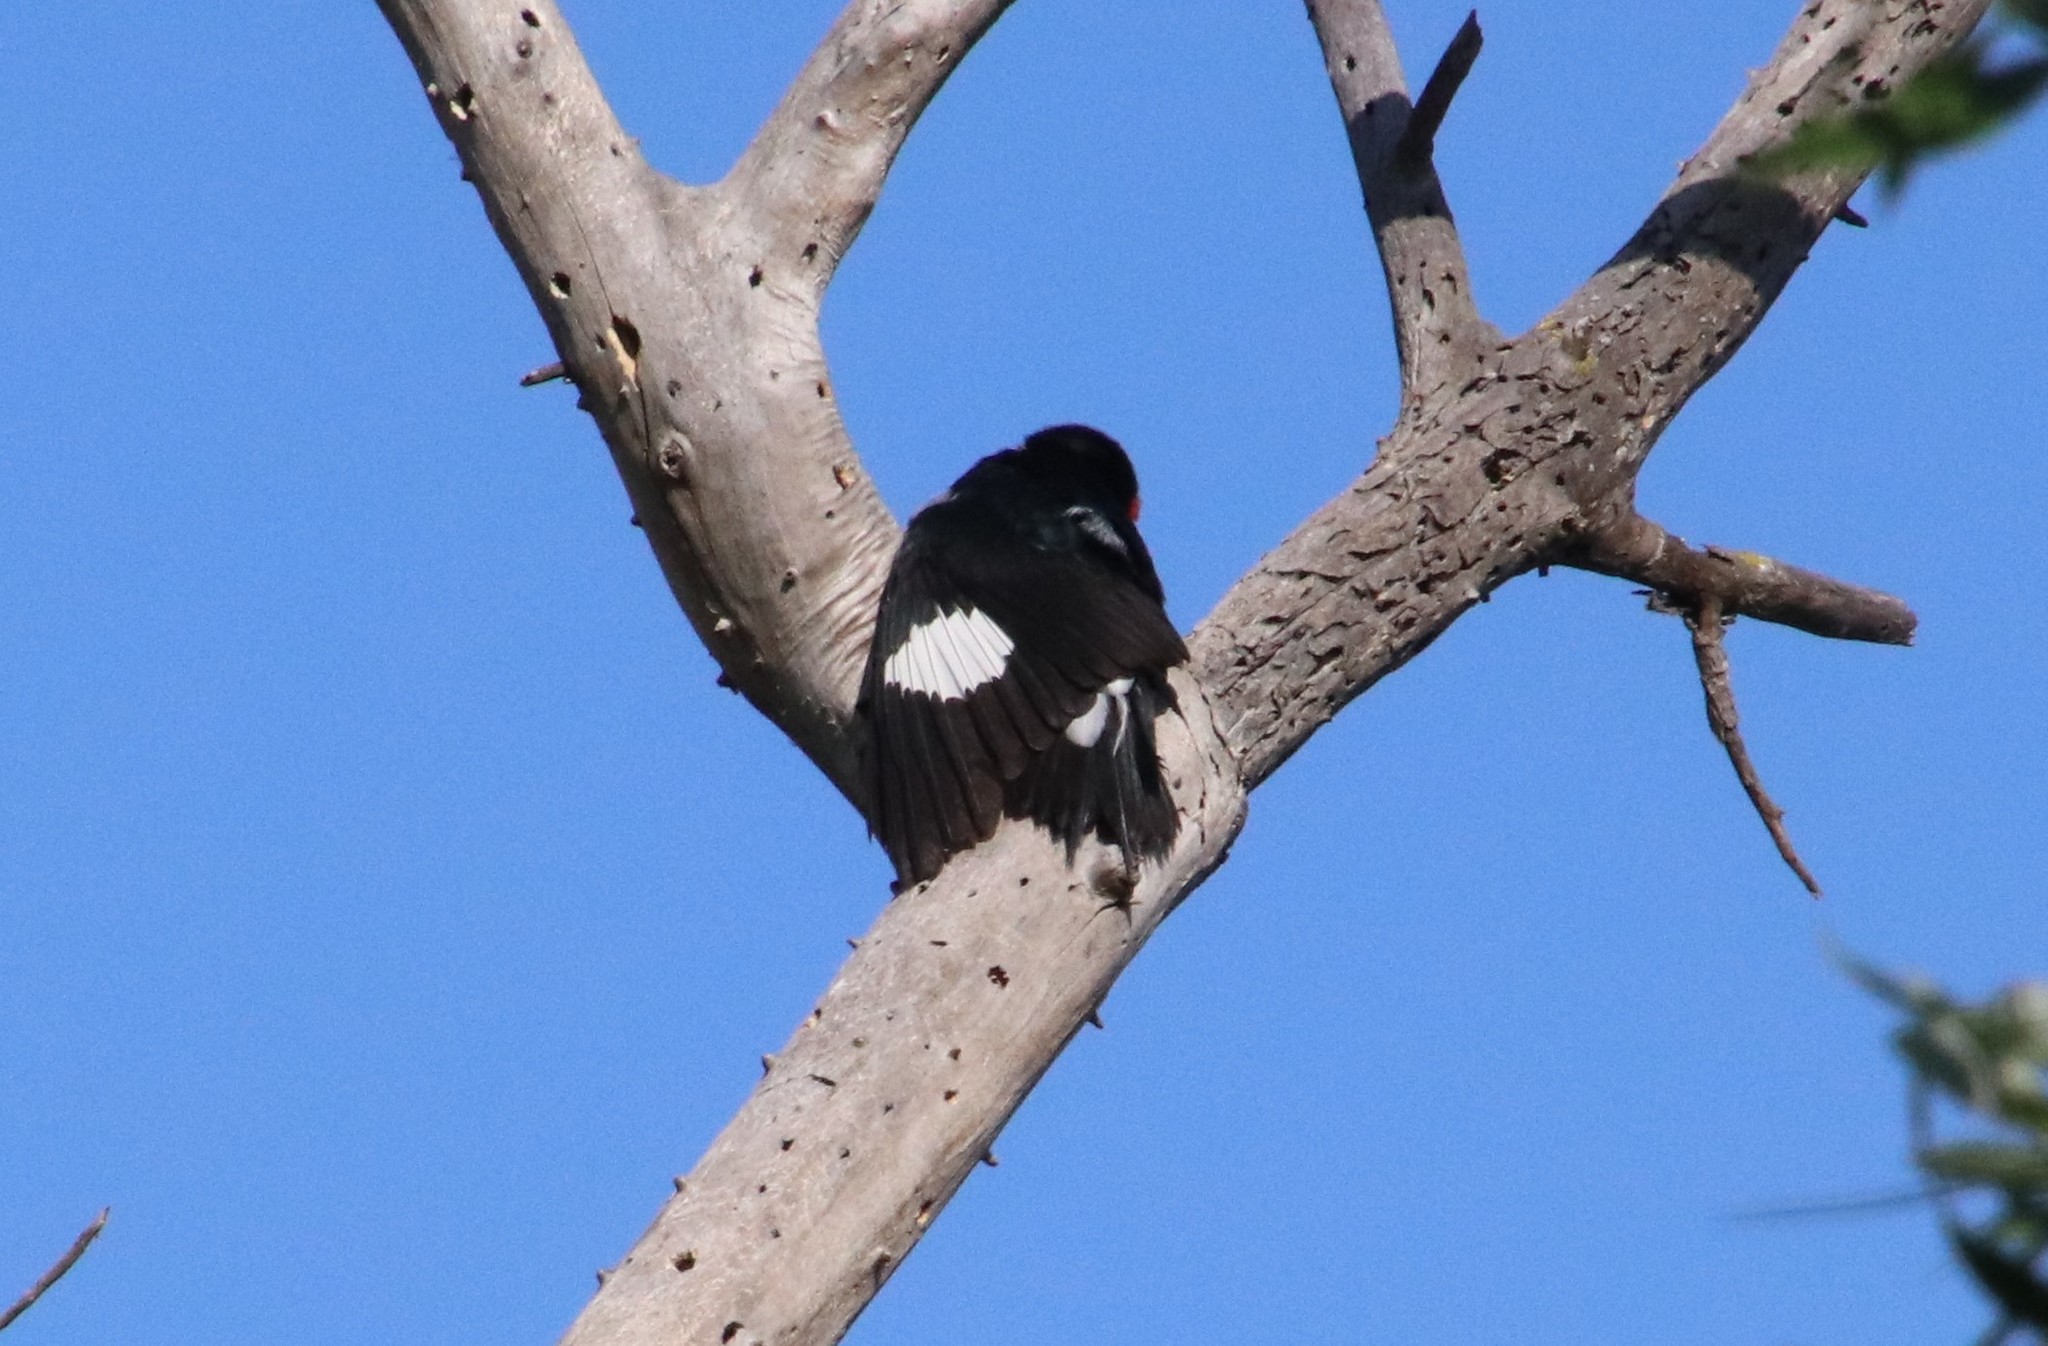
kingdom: Animalia
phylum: Chordata
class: Aves
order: Piciformes
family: Picidae
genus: Melanerpes
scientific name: Melanerpes formicivorus
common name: Acorn woodpecker
